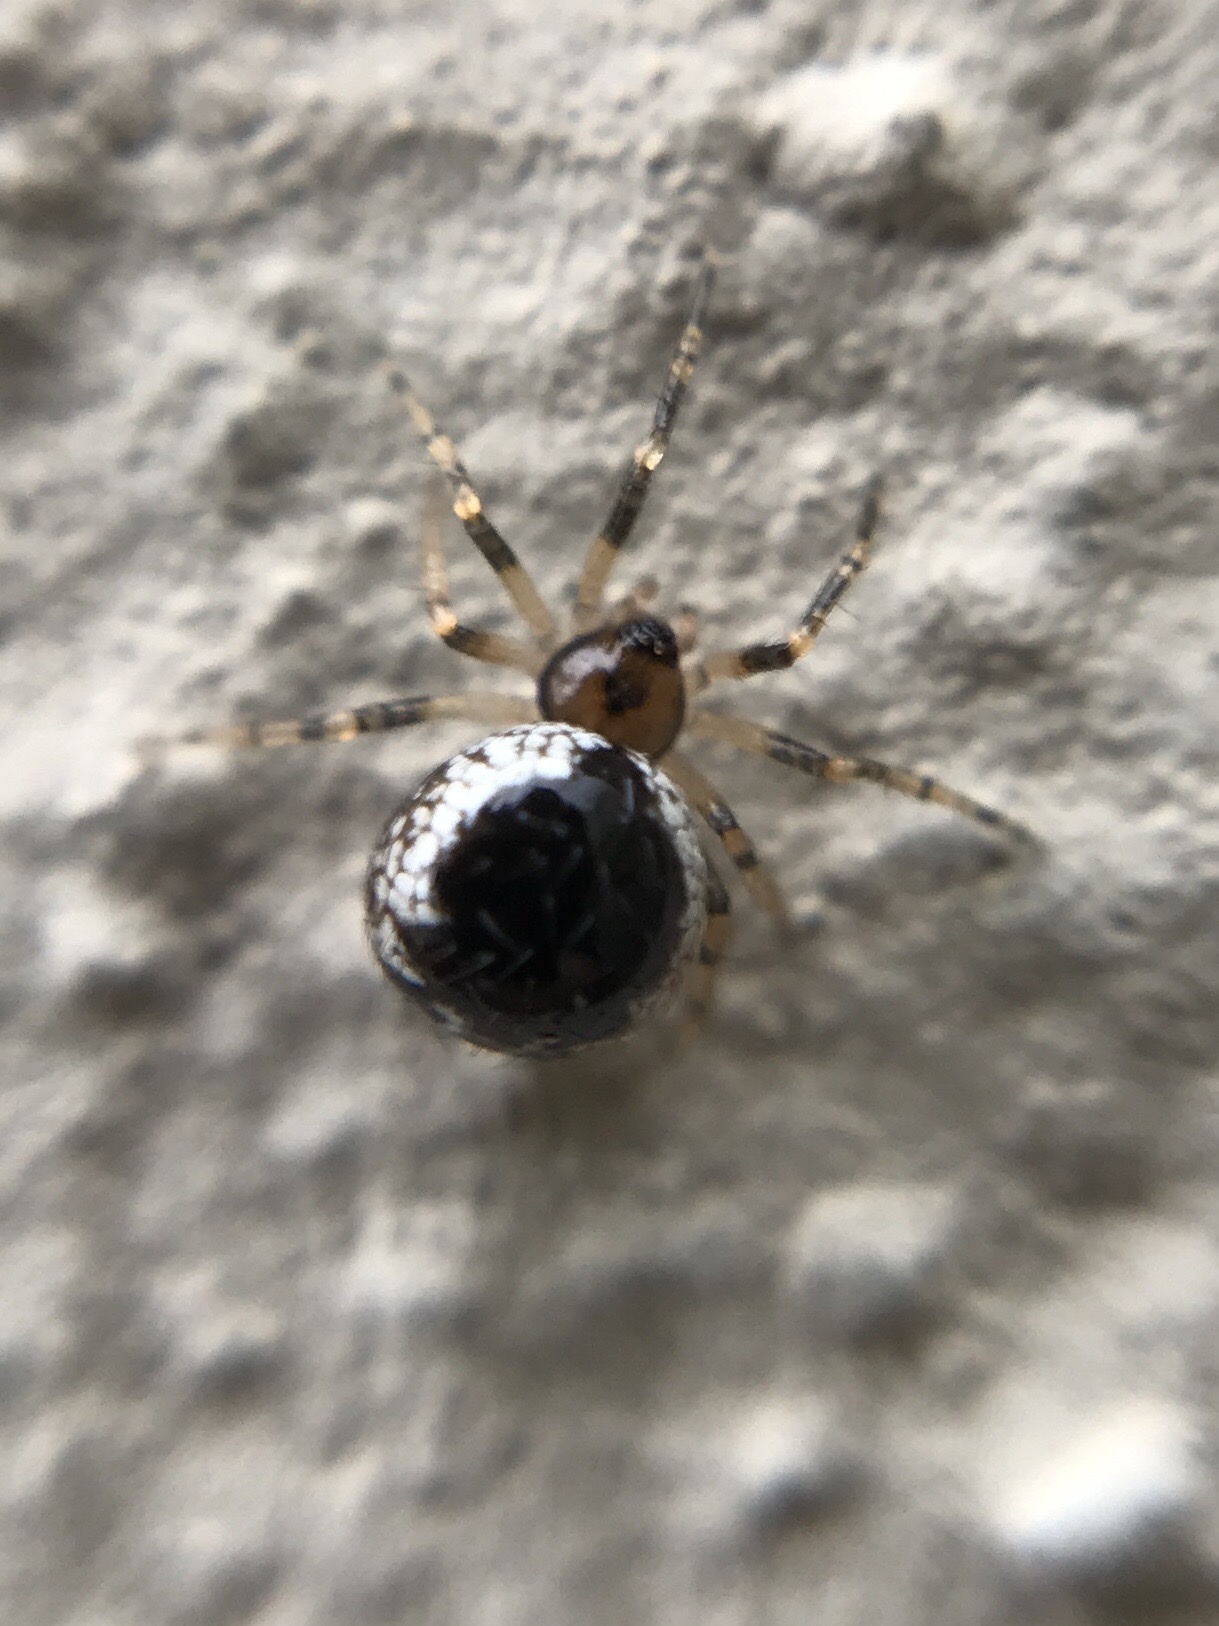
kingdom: Animalia
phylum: Arthropoda
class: Arachnida
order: Araneae
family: Theridiidae
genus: Sardinidion
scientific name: Sardinidion blackwalli
